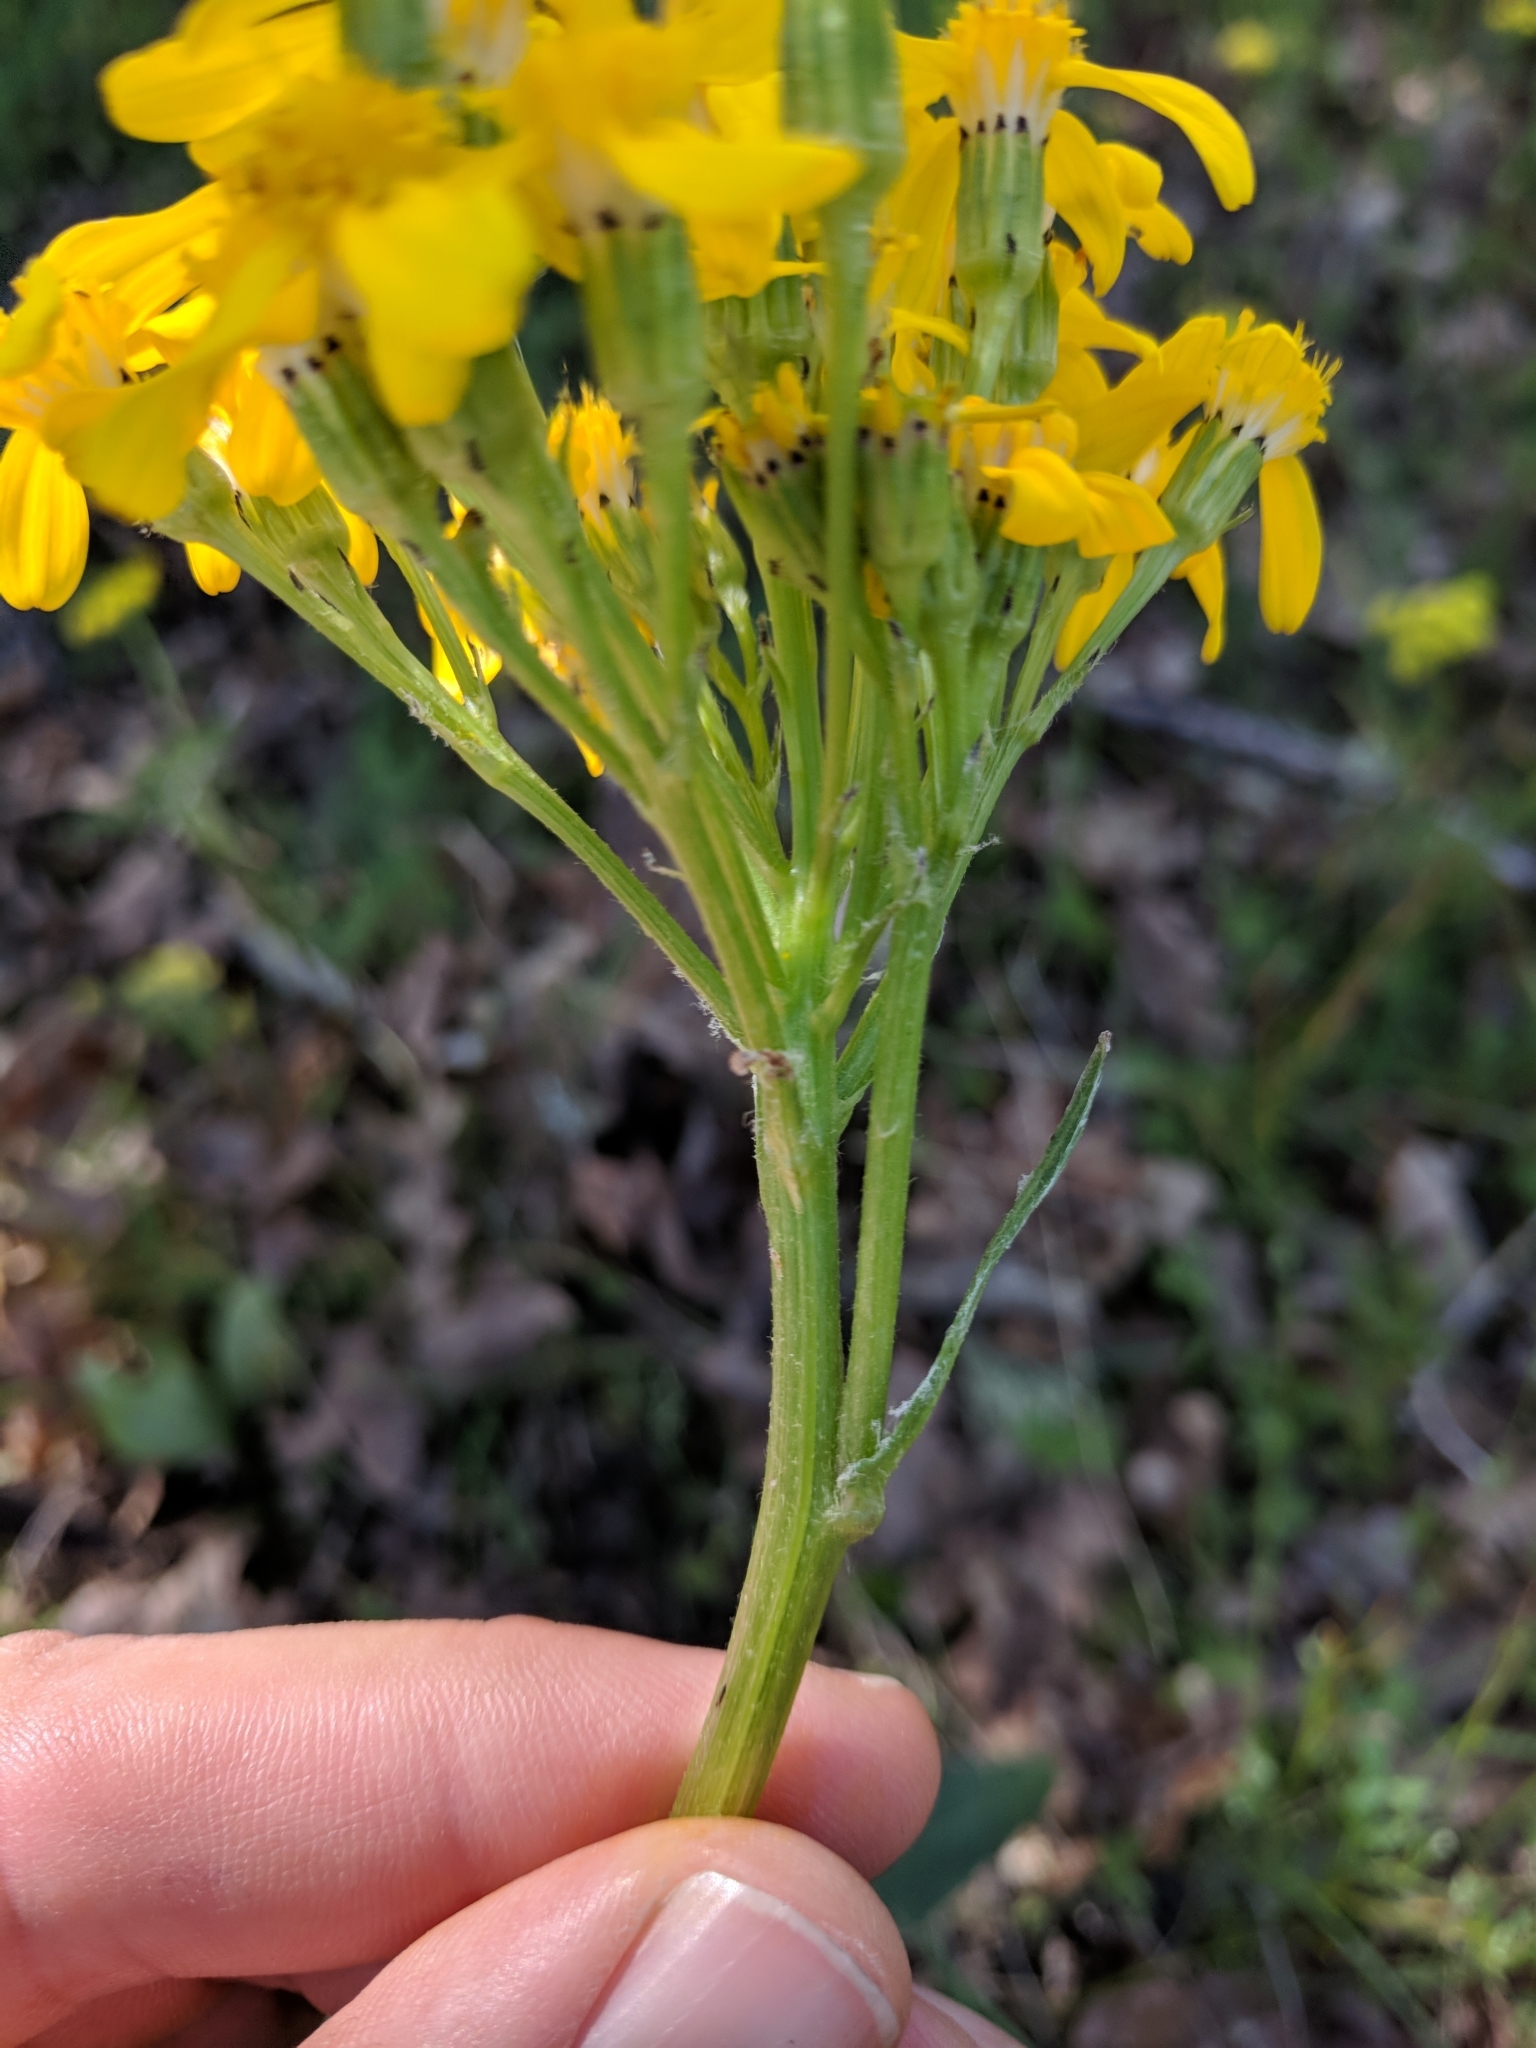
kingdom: Plantae
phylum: Tracheophyta
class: Magnoliopsida
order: Asterales
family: Asteraceae
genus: Senecio
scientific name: Senecio integerrimus
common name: Gaugeplant
